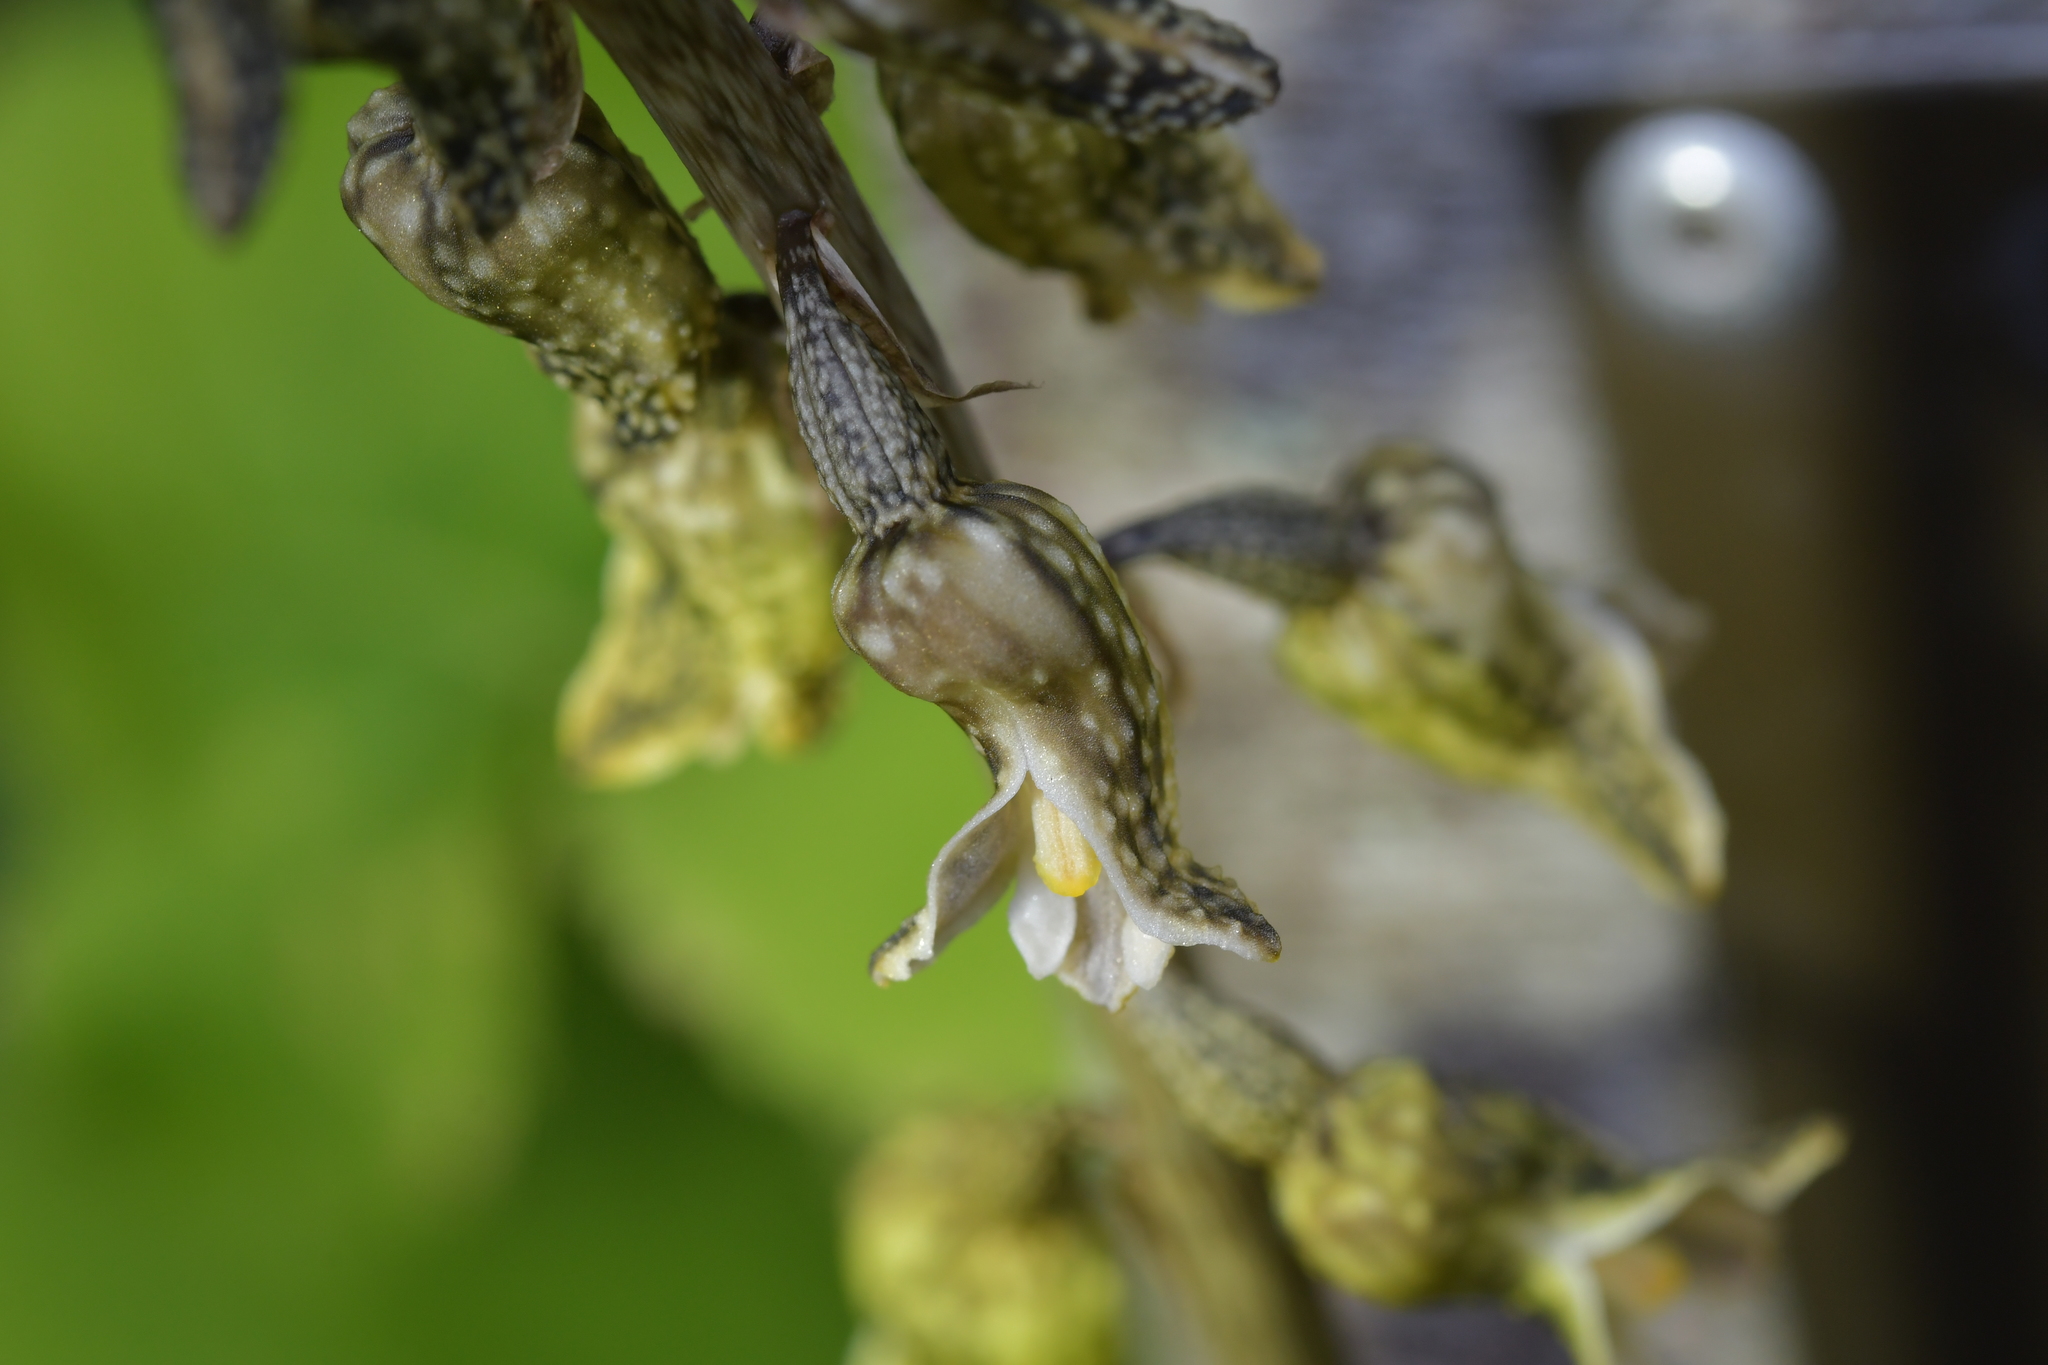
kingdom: Plantae
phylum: Tracheophyta
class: Liliopsida
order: Asparagales
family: Orchidaceae
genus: Gastrodia
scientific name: Gastrodia molloyi
